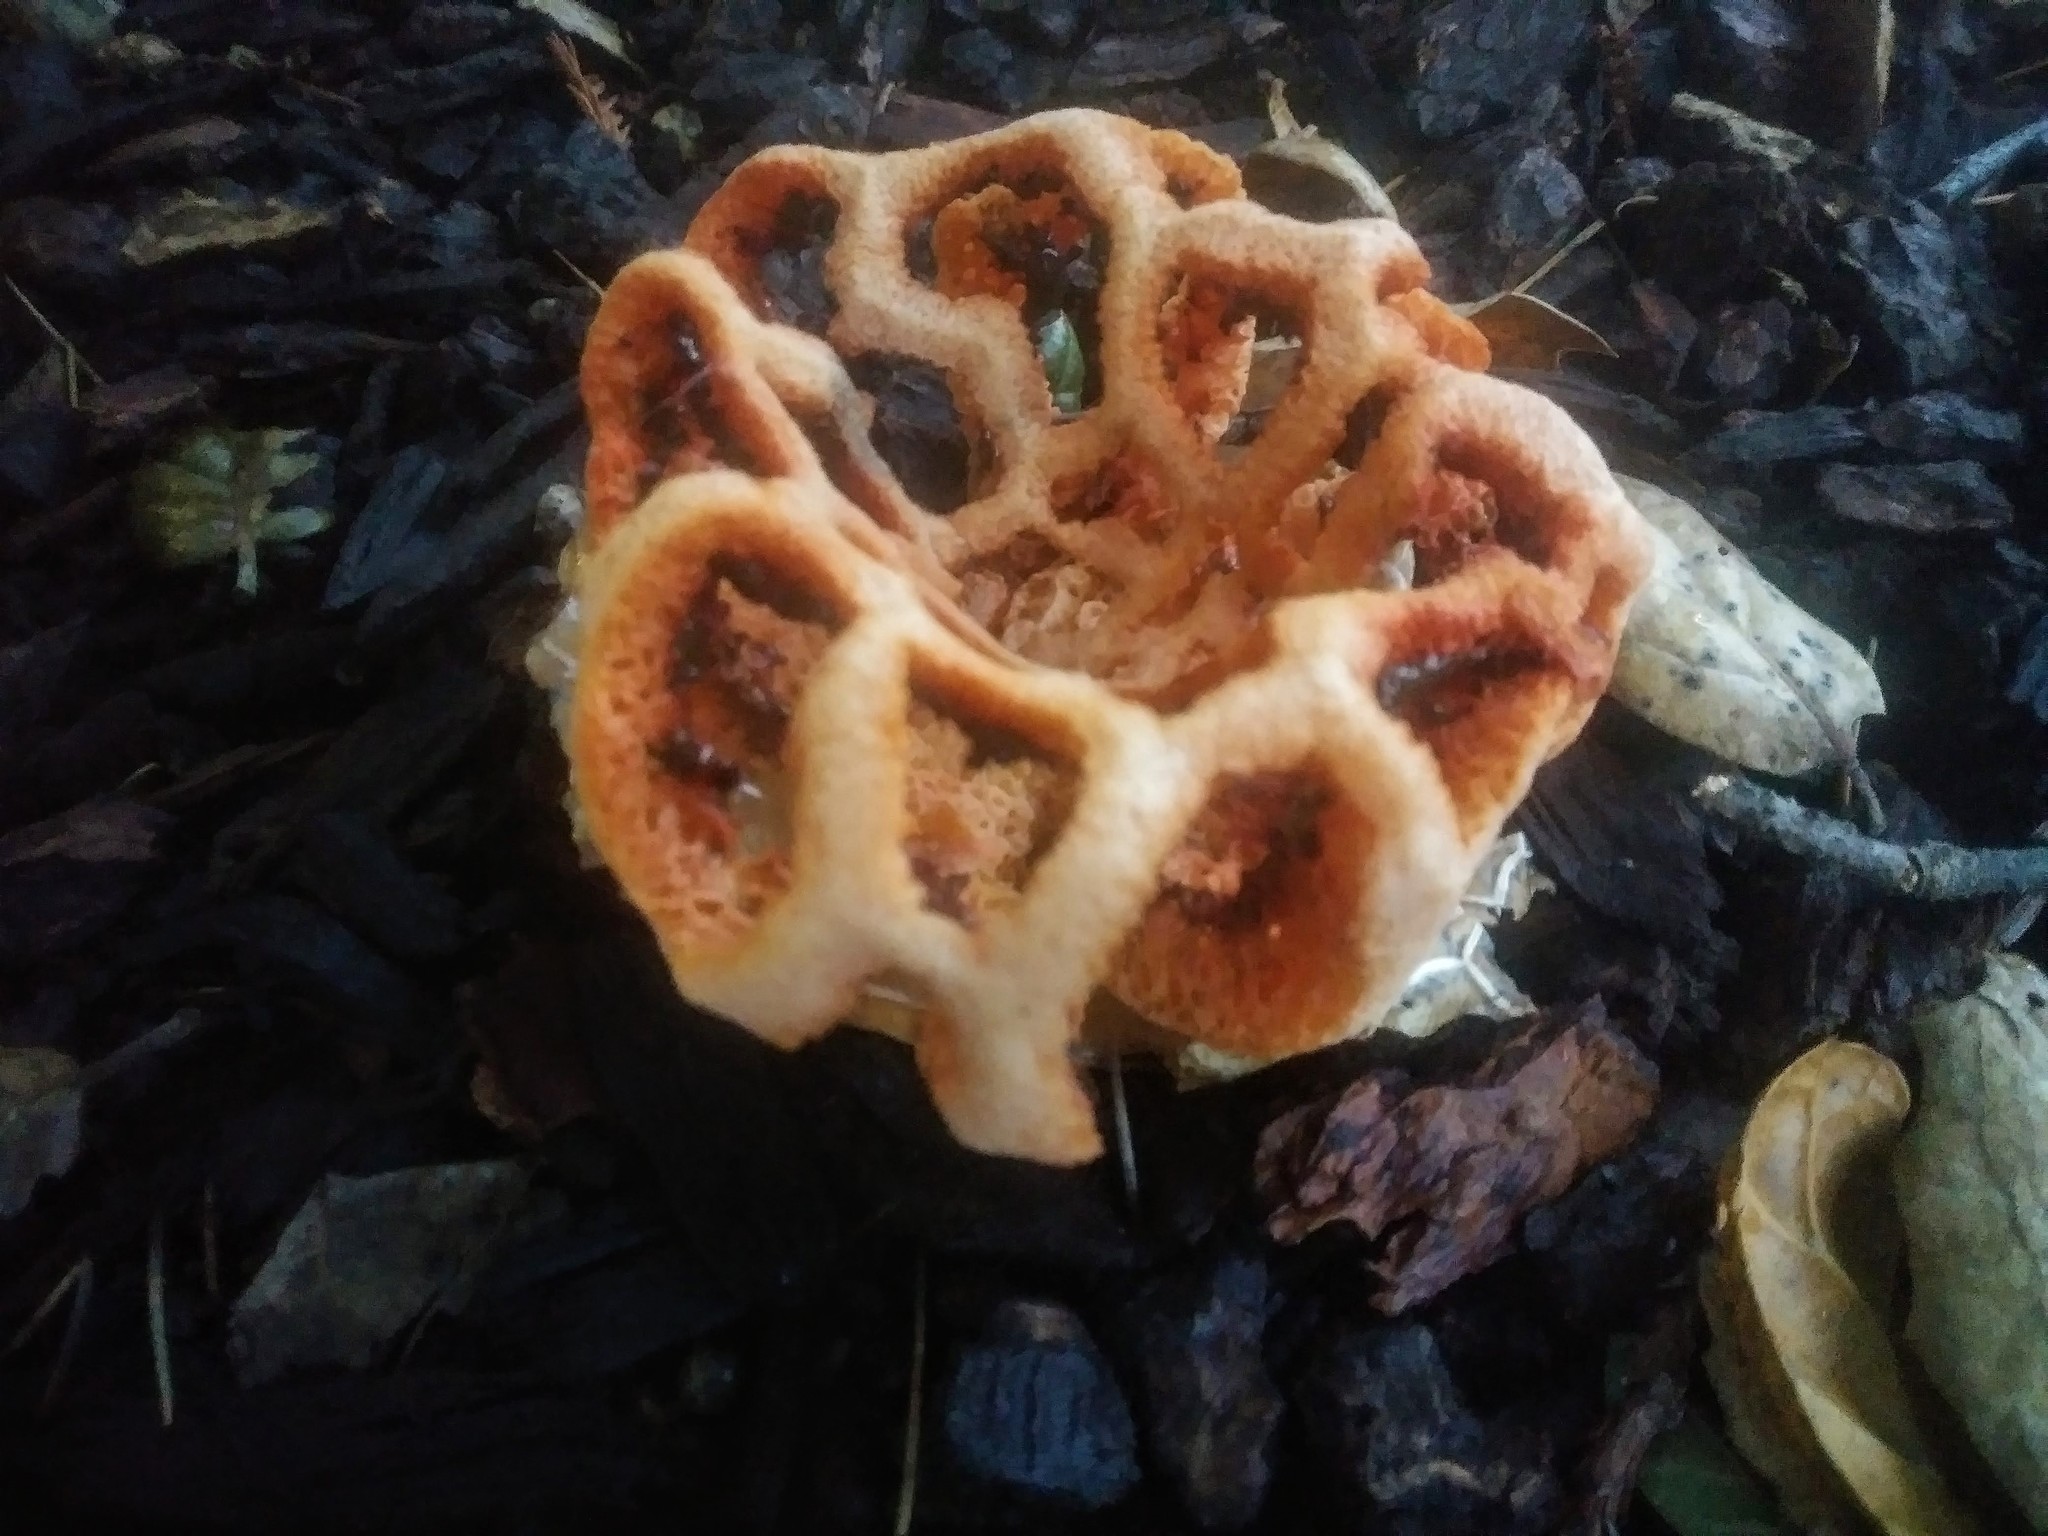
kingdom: Fungi
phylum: Basidiomycota
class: Agaricomycetes
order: Phallales
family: Phallaceae
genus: Clathrus
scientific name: Clathrus ruber
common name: Red cage
